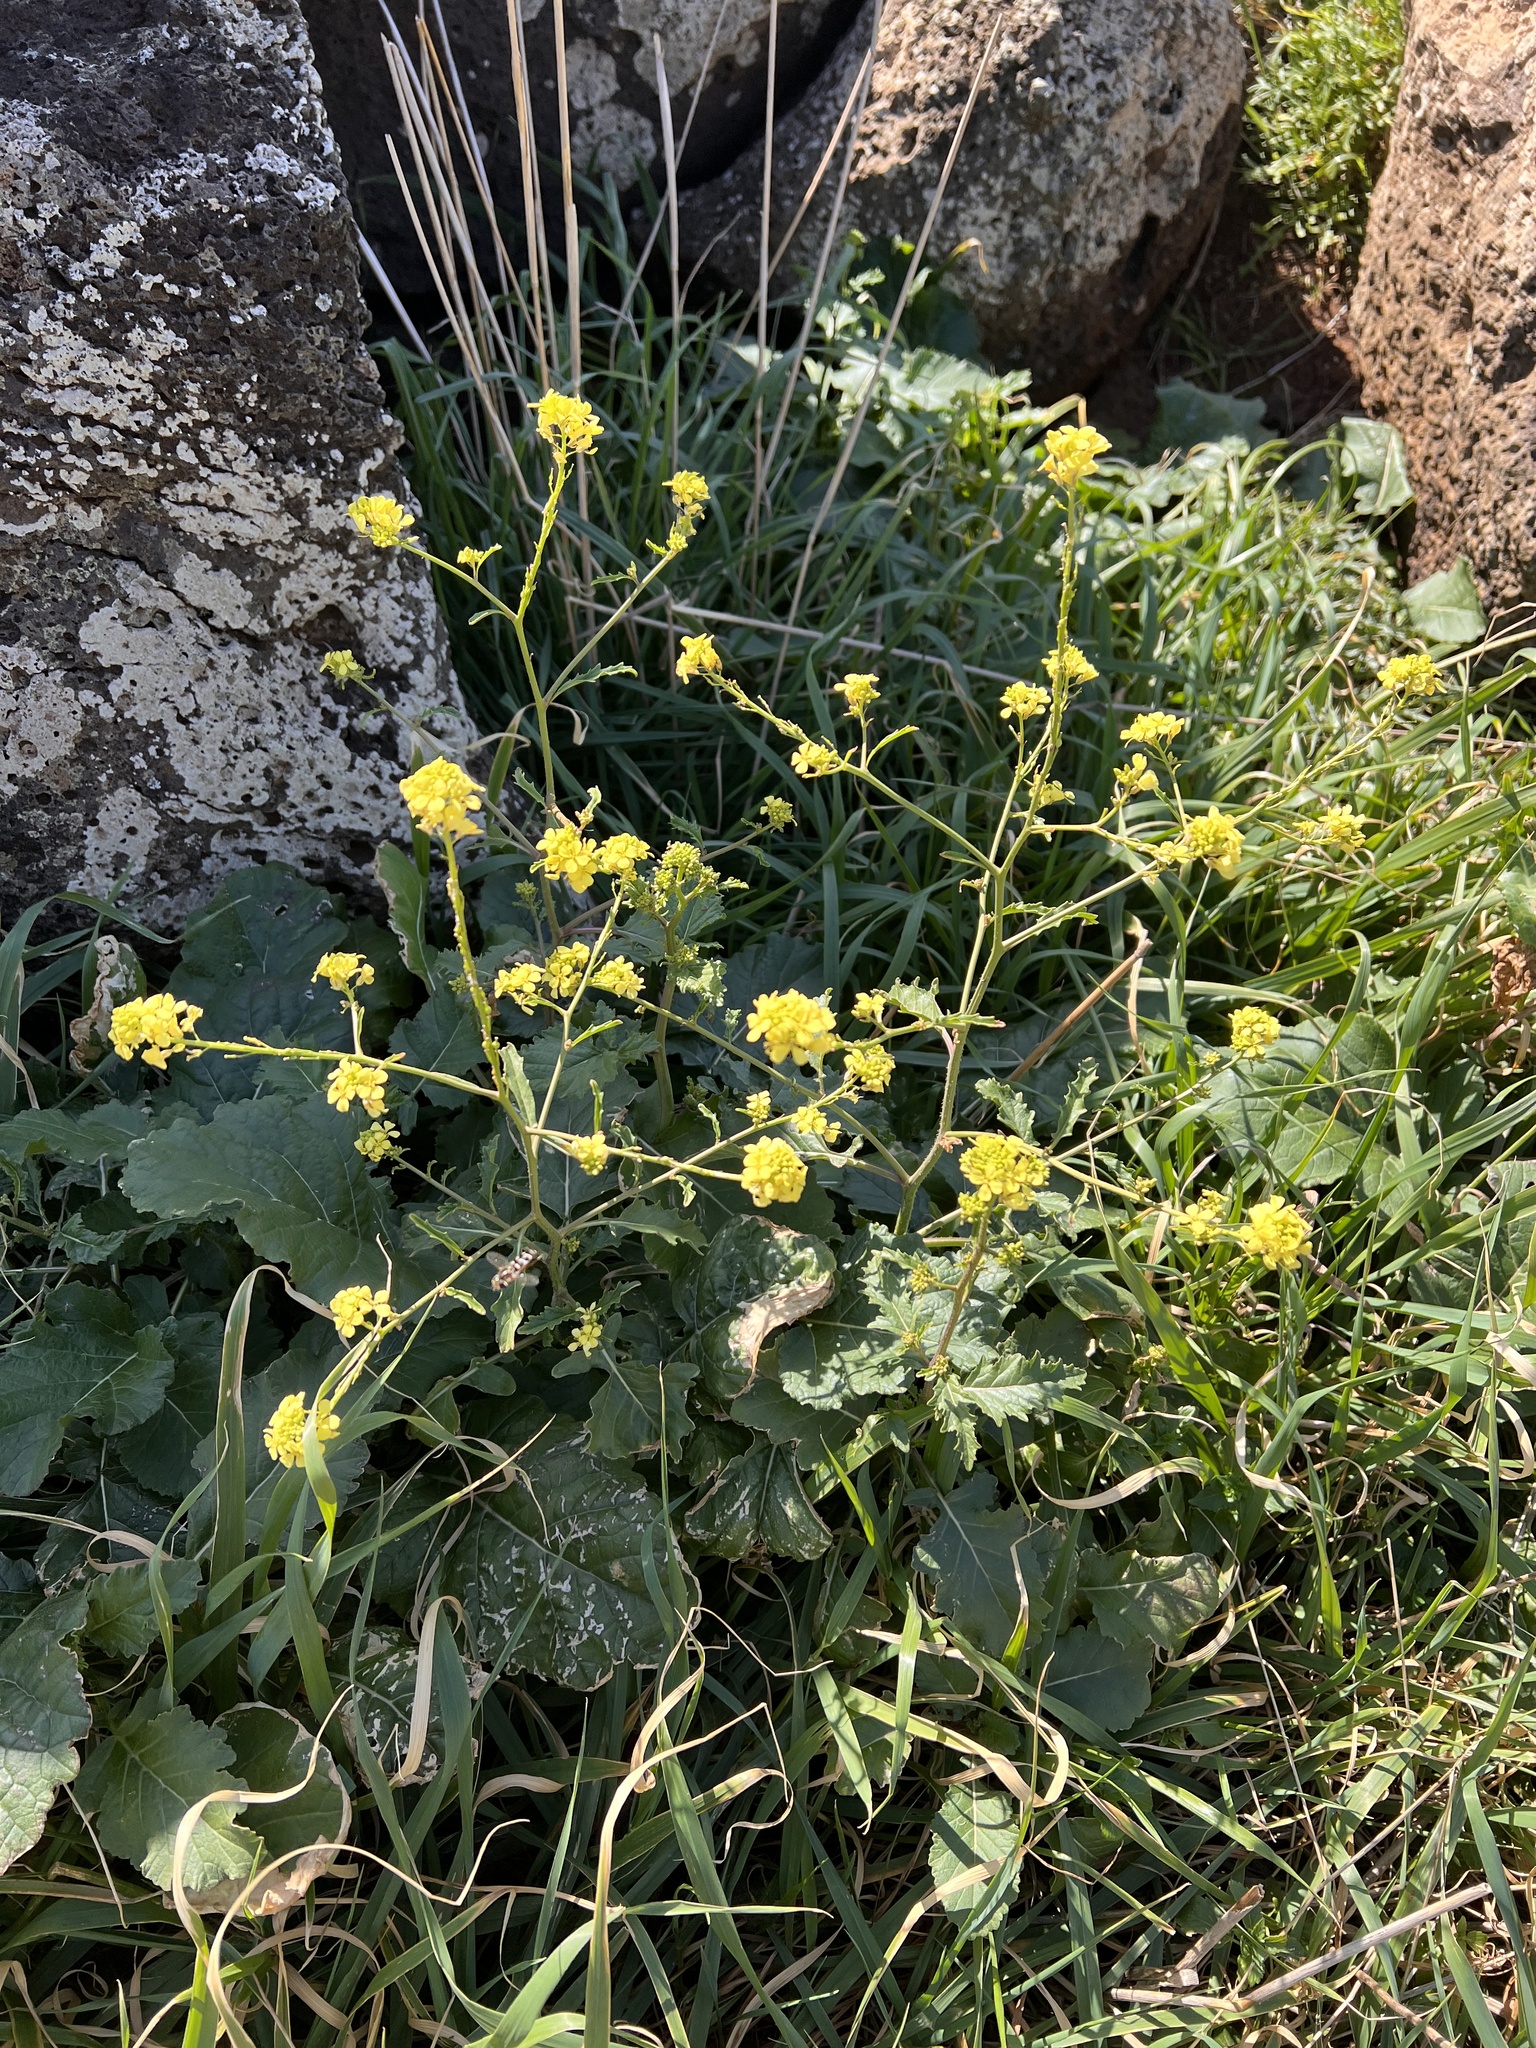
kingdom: Plantae
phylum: Tracheophyta
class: Magnoliopsida
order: Brassicales
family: Brassicaceae
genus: Rapistrum
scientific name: Rapistrum rugosum
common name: Annual bastardcabbage
